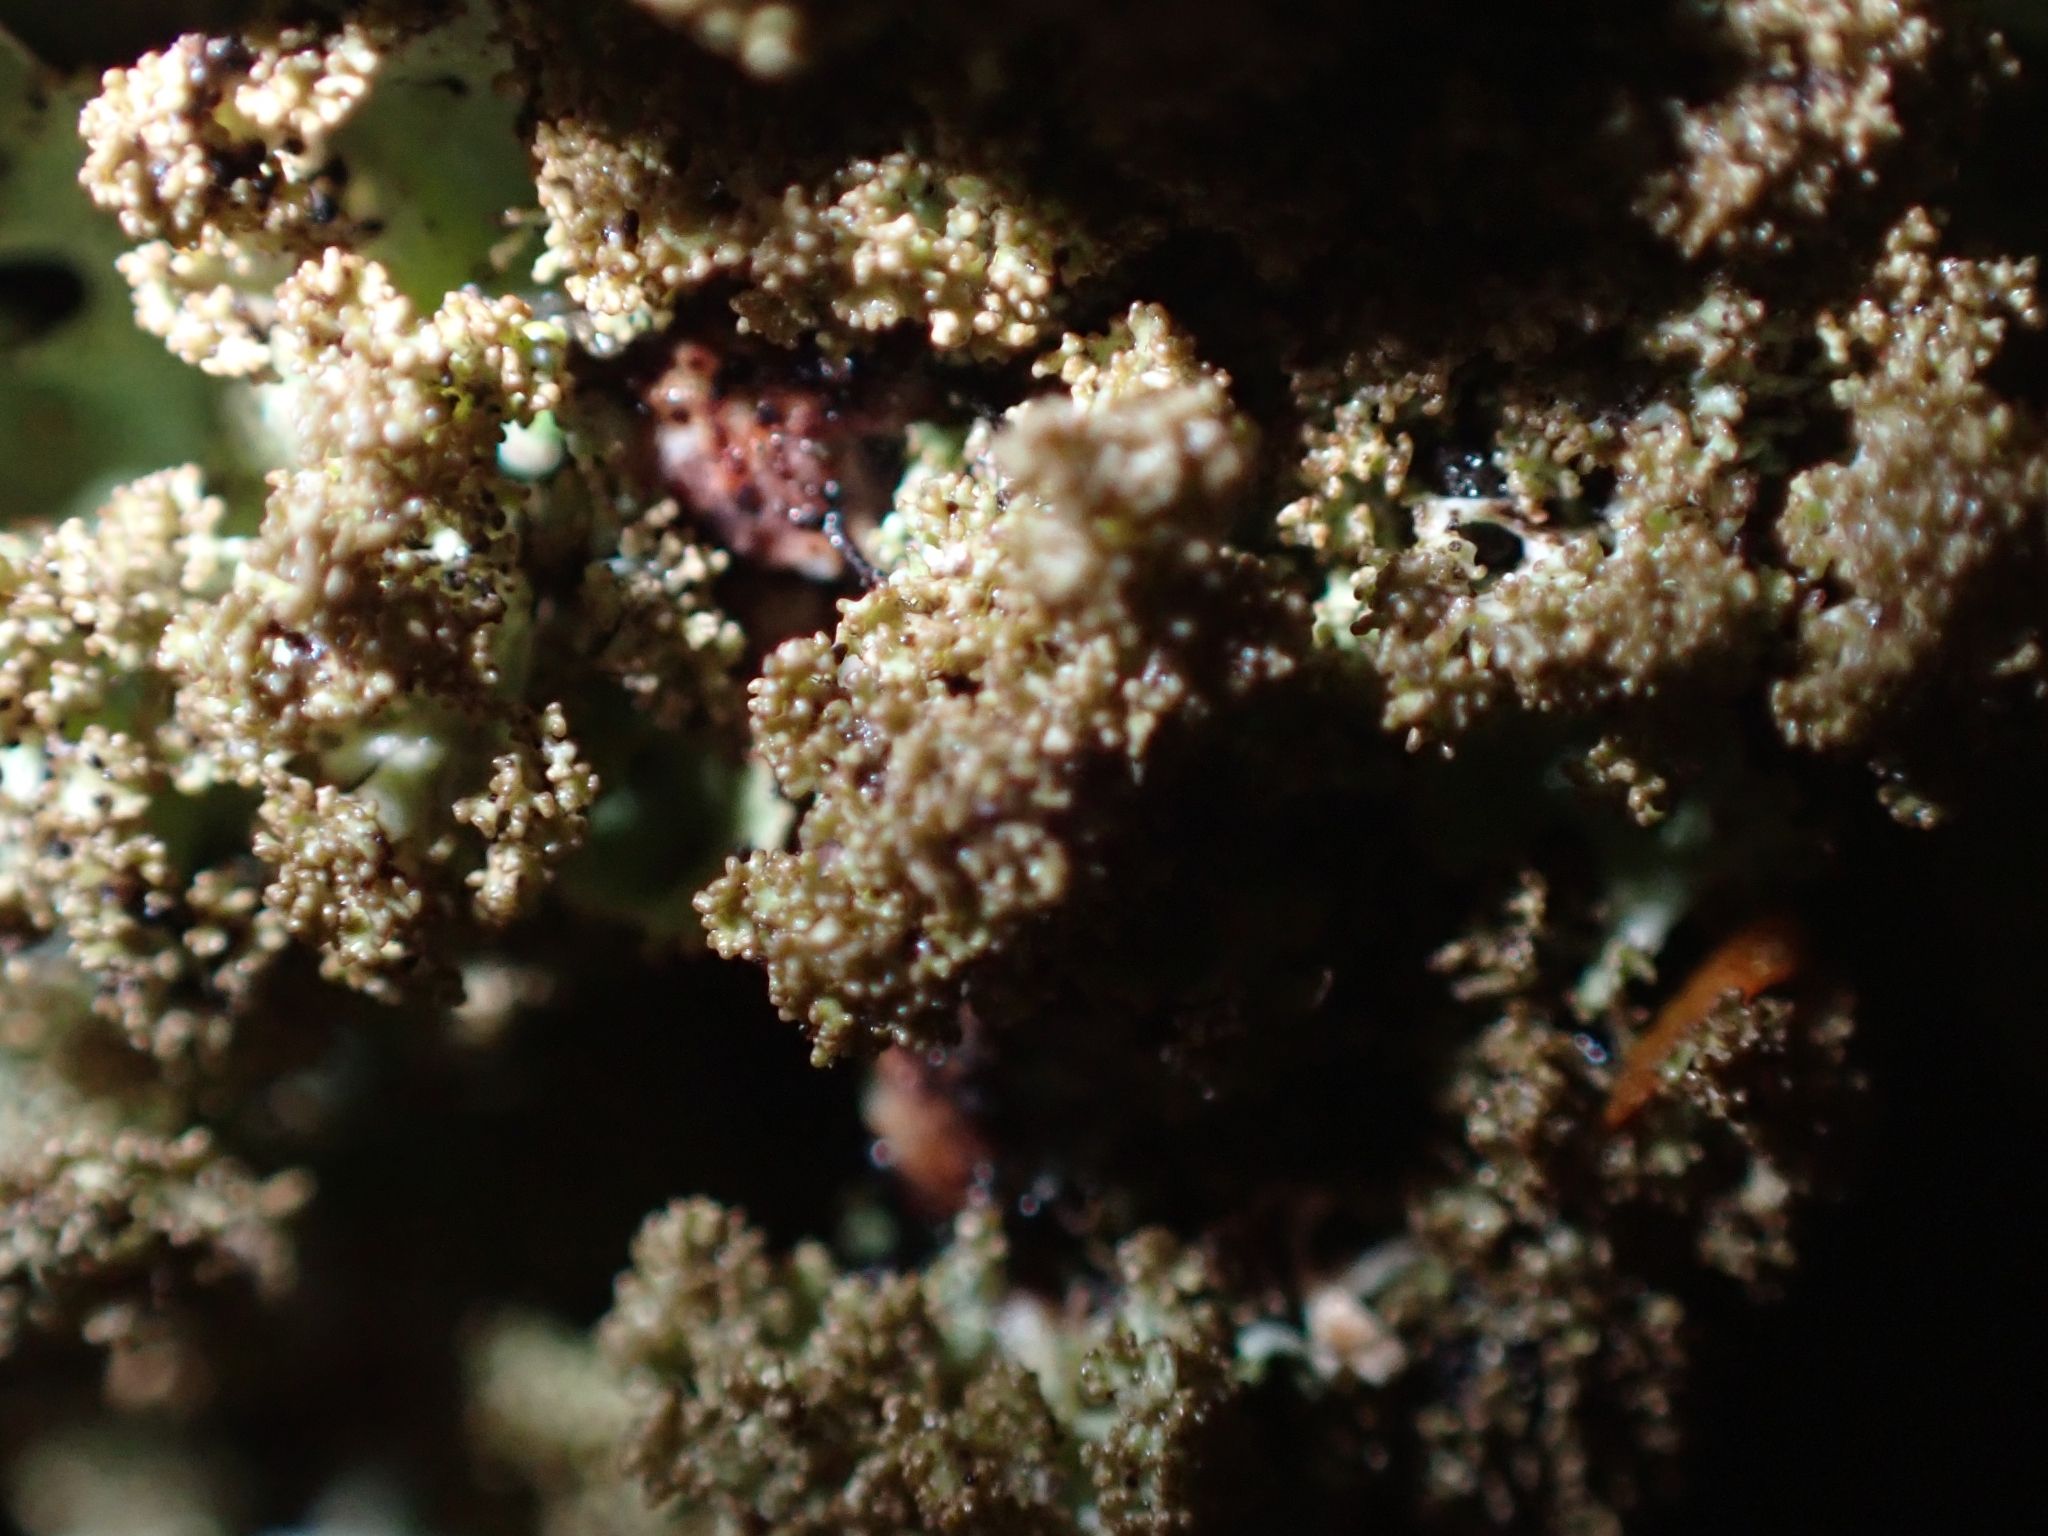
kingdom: Fungi
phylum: Ascomycota
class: Lecanoromycetes
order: Lecanorales
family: Parmeliaceae
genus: Platismatia
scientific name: Platismatia glauca
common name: Varied rag lichen
